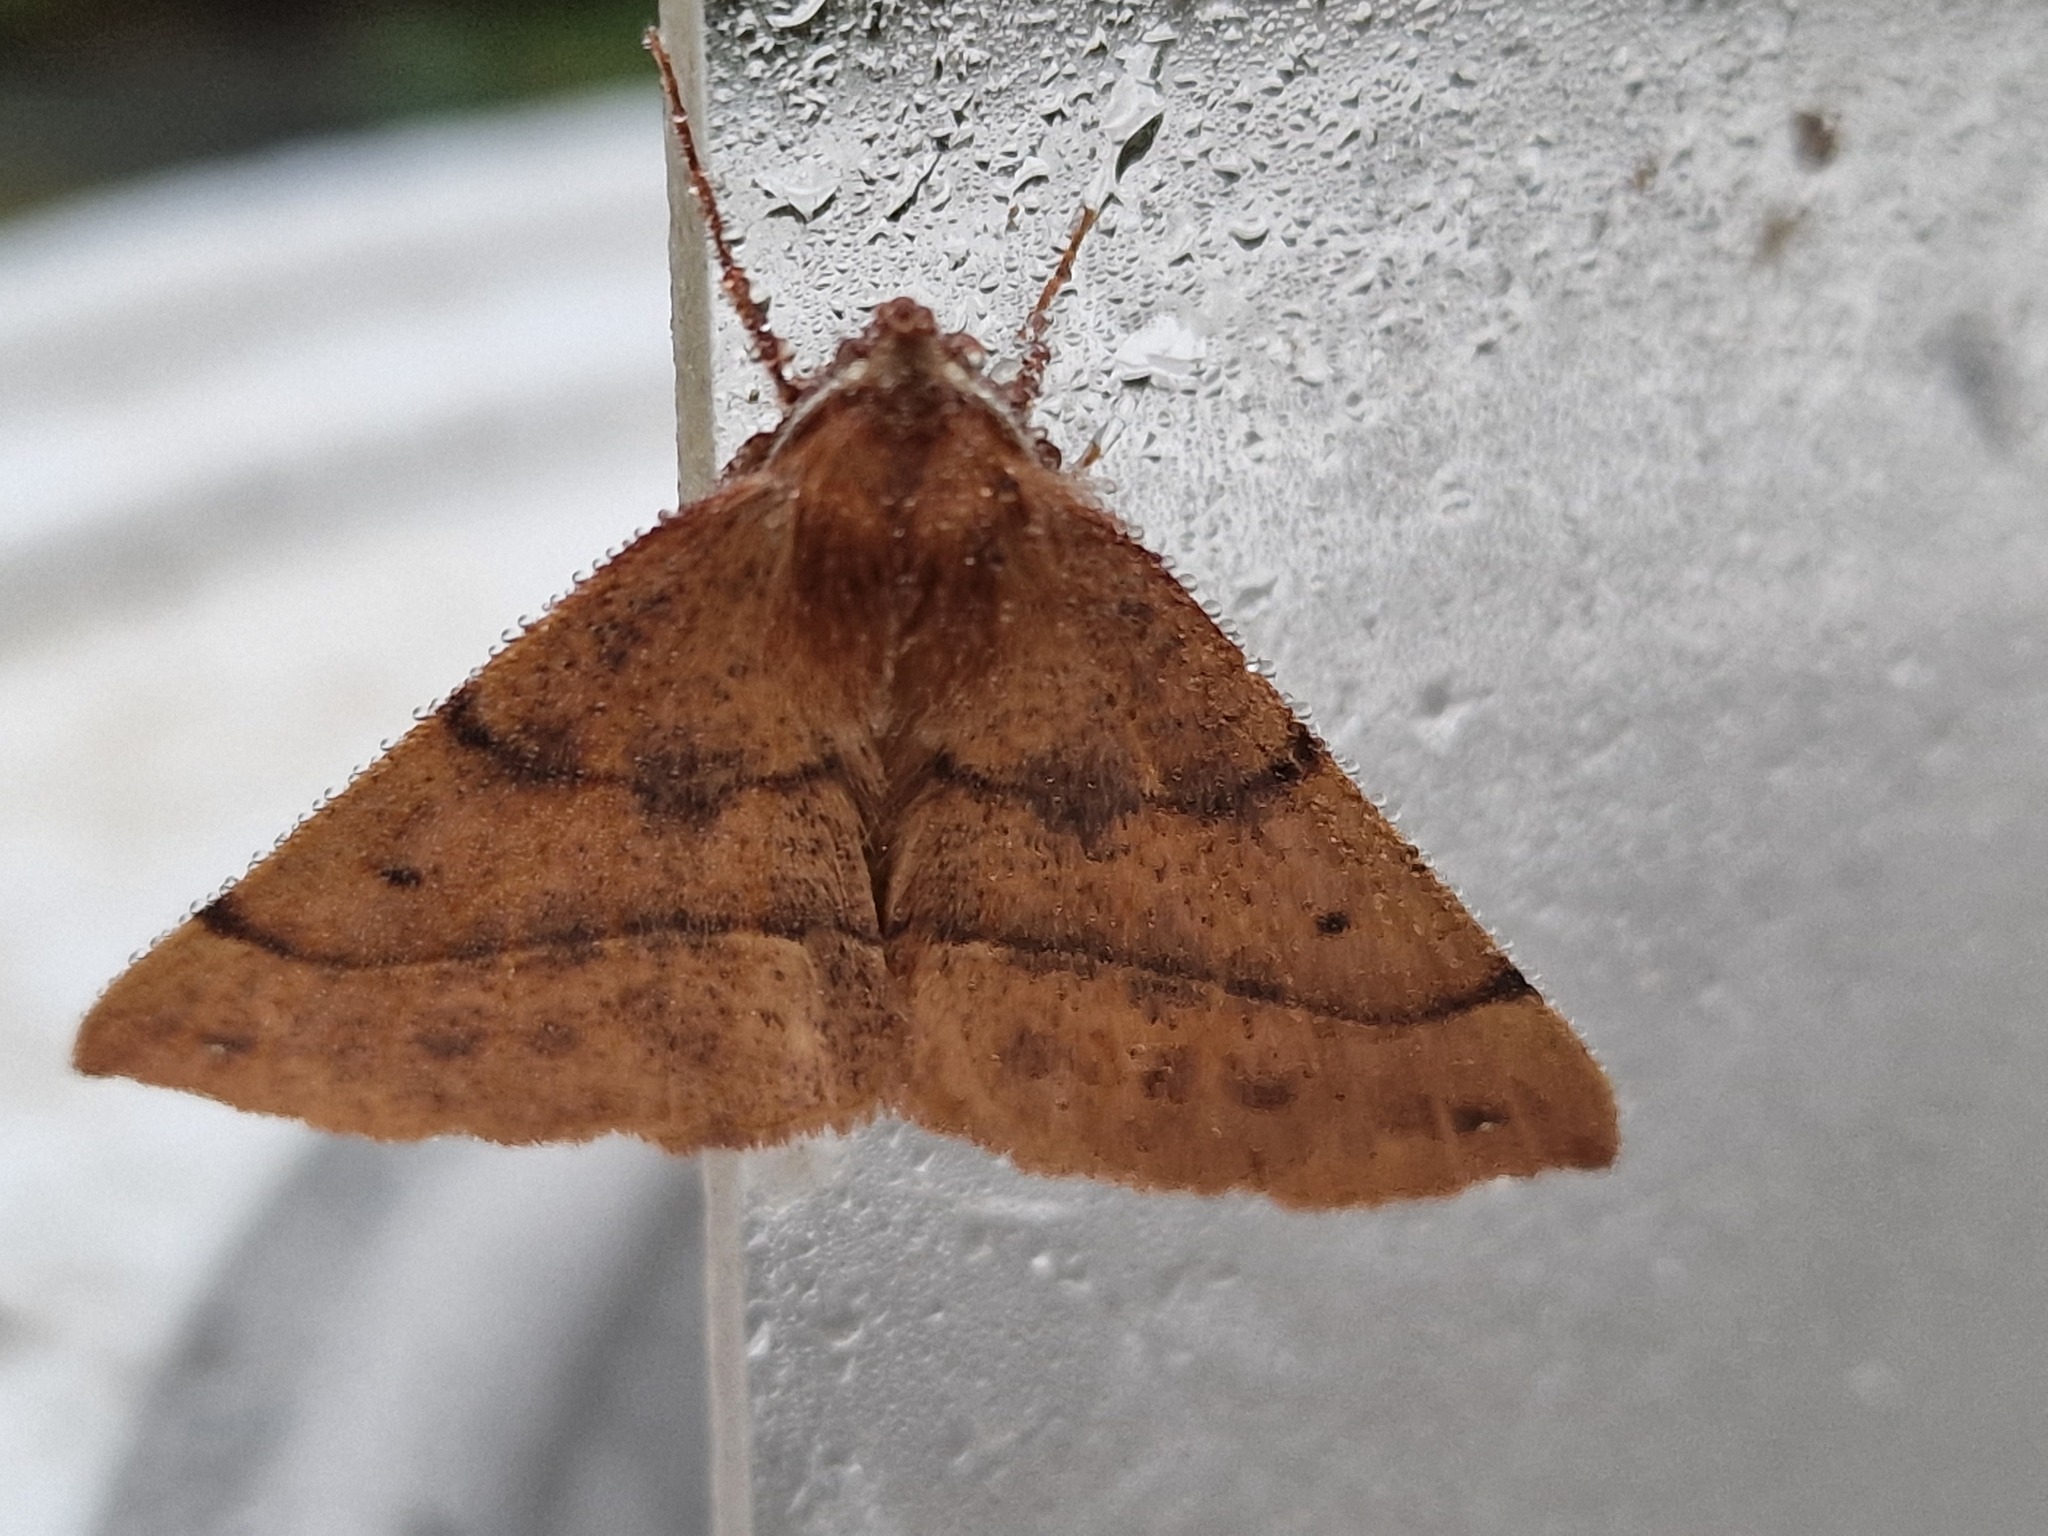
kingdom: Animalia
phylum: Arthropoda
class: Insecta
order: Lepidoptera
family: Geometridae
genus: Colotois
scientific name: Colotois pennaria
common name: Feathered thorn
